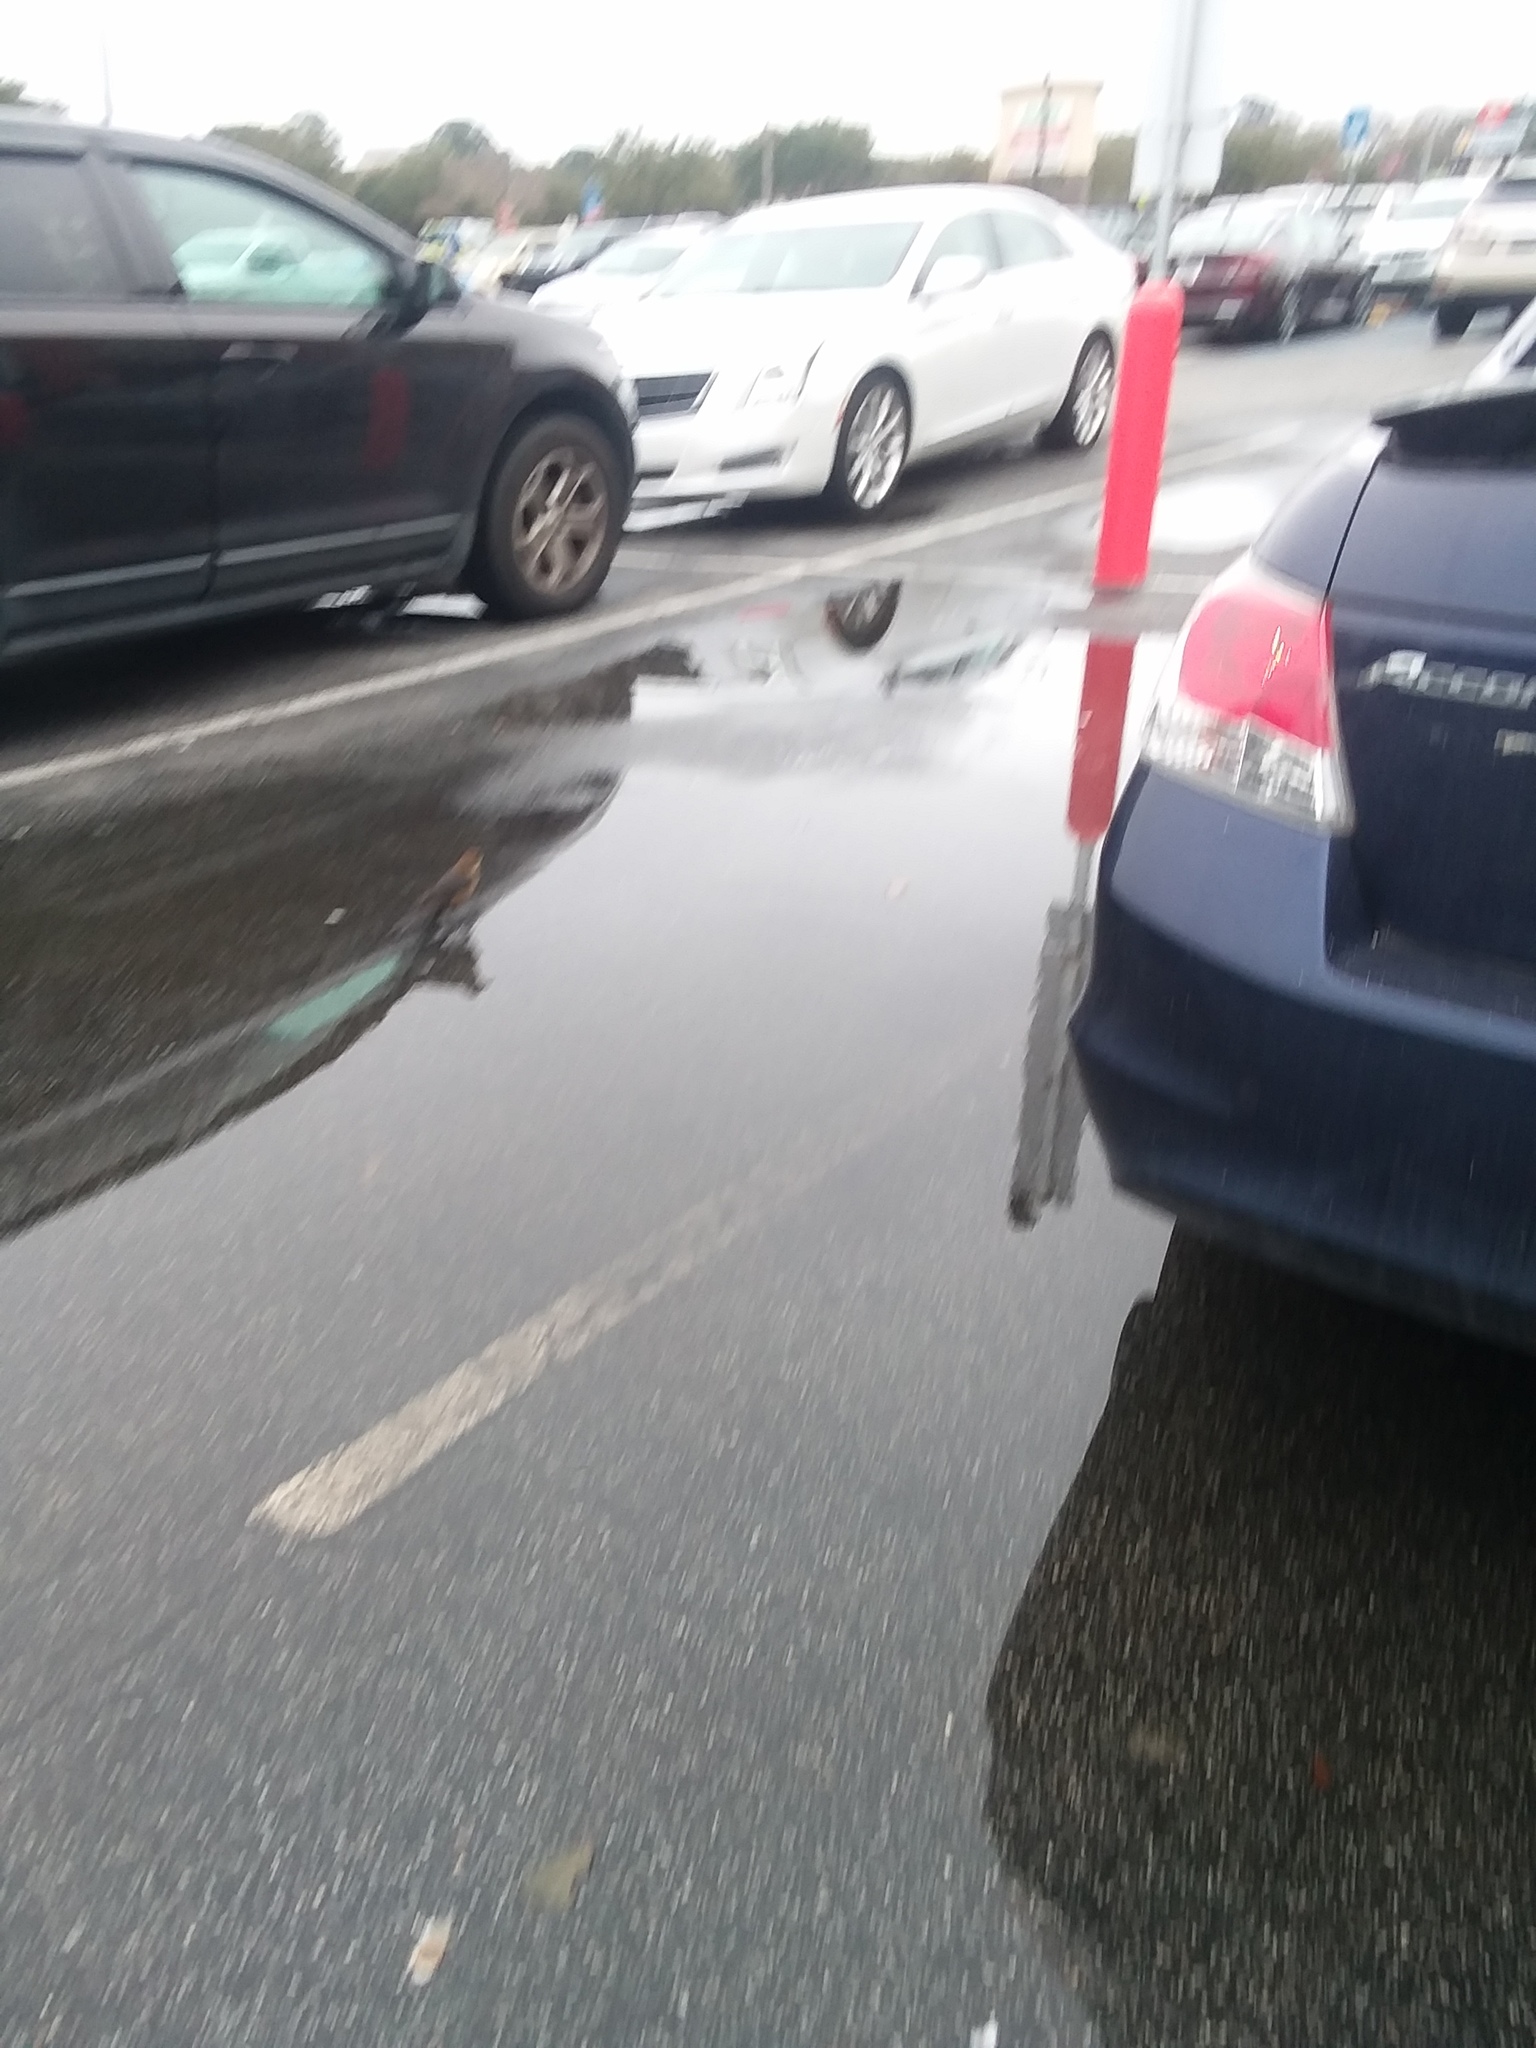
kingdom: Animalia
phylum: Chordata
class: Aves
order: Passeriformes
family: Icteridae
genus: Quiscalus
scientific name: Quiscalus major
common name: Boat-tailed grackle
